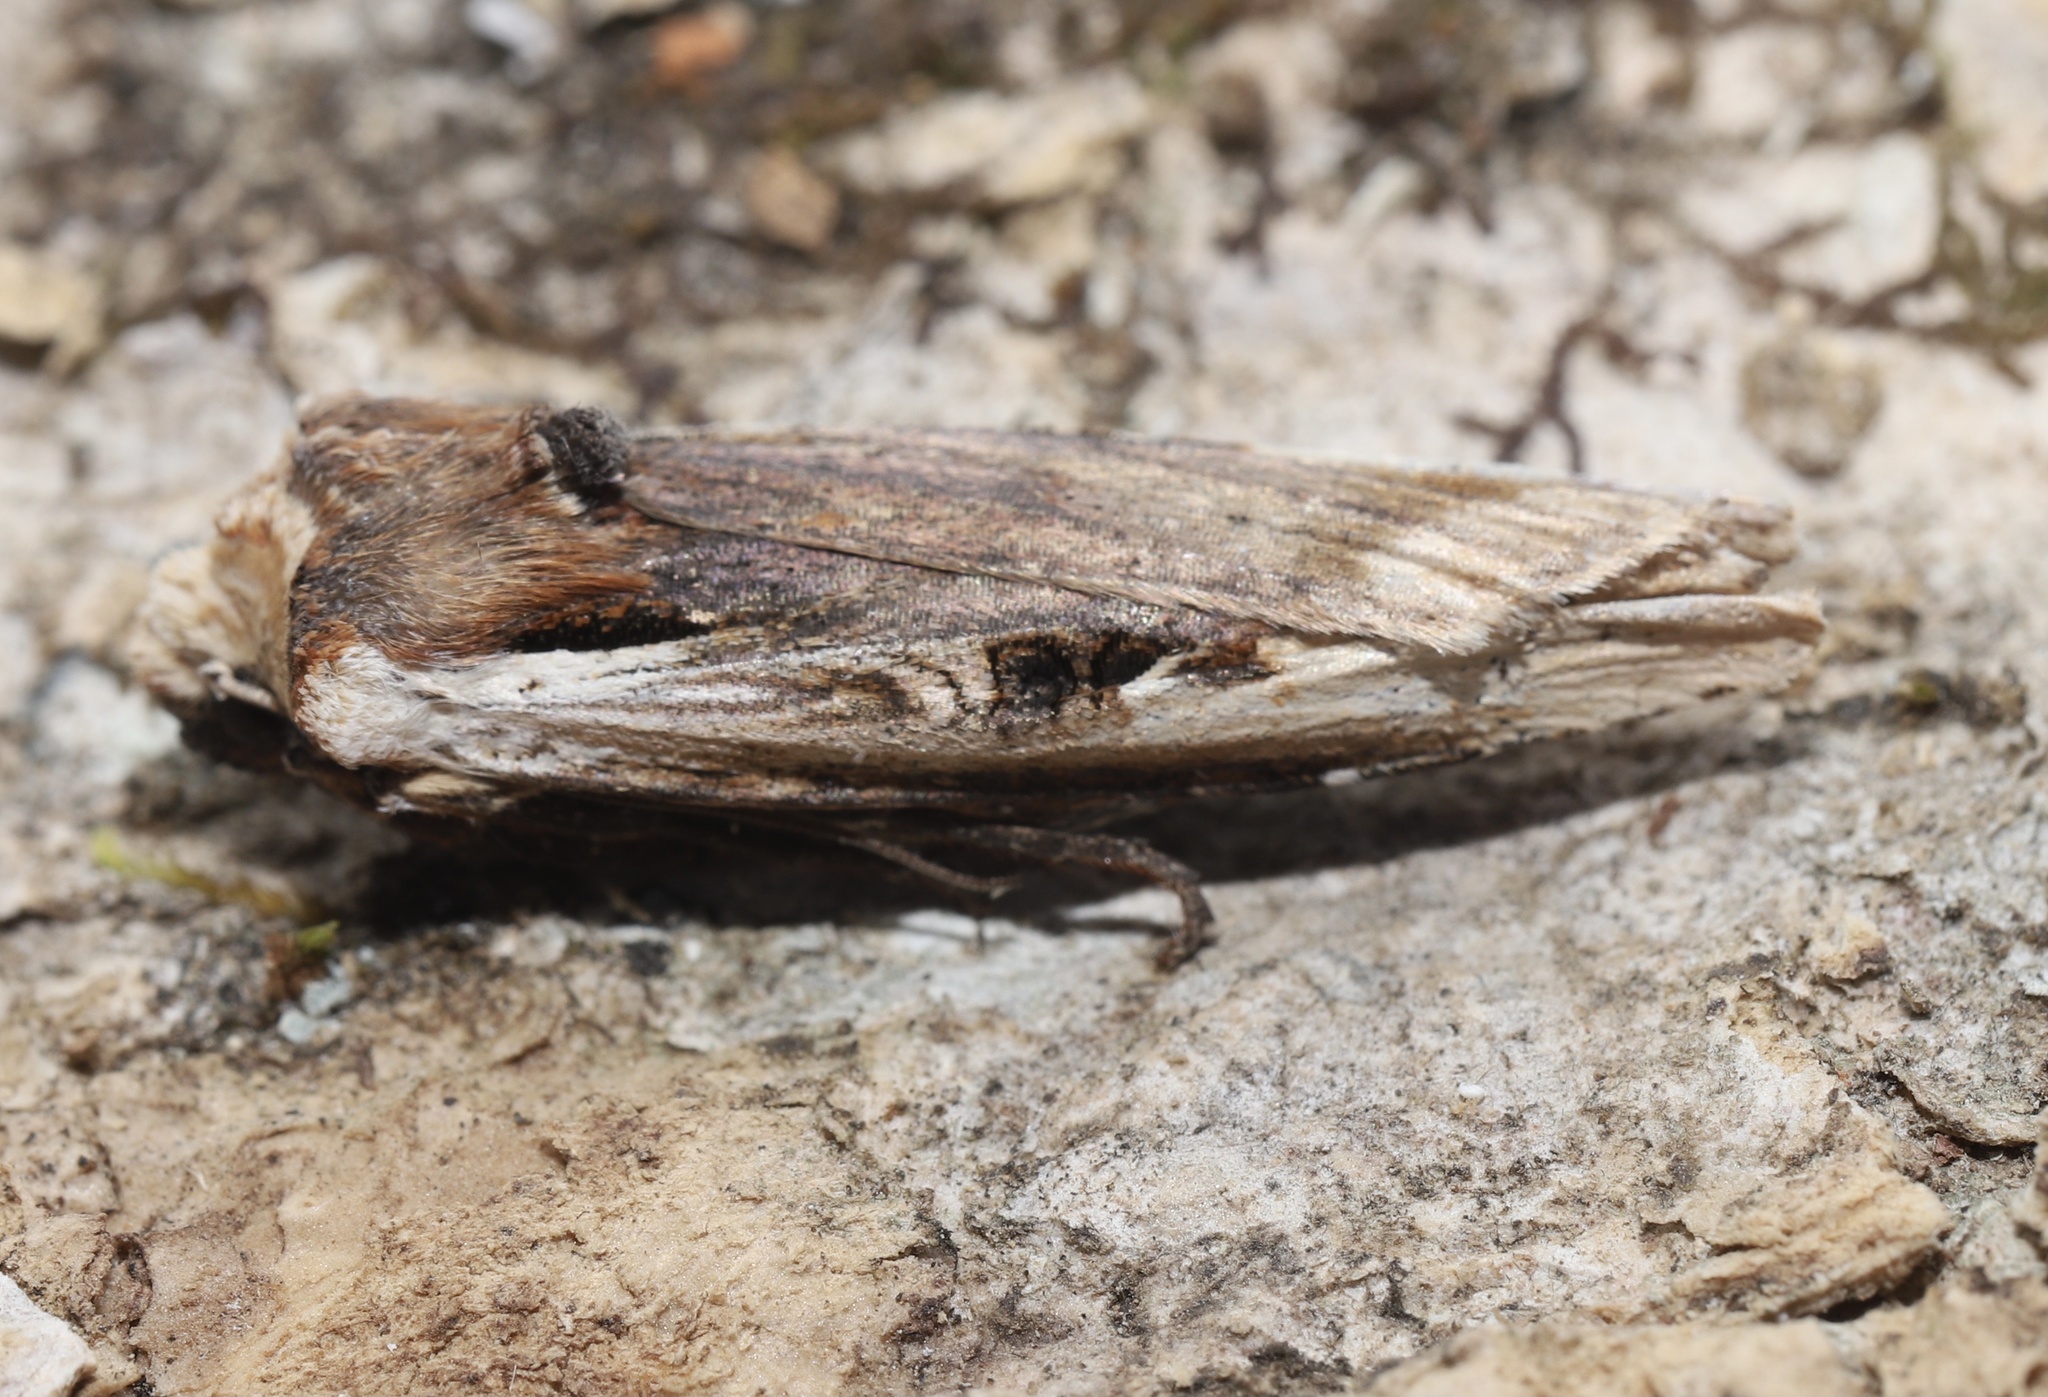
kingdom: Animalia
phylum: Arthropoda
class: Insecta
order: Lepidoptera
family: Noctuidae
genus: Xylena
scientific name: Xylena curvimacula
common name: Dot-and-dash swordgrass moth
